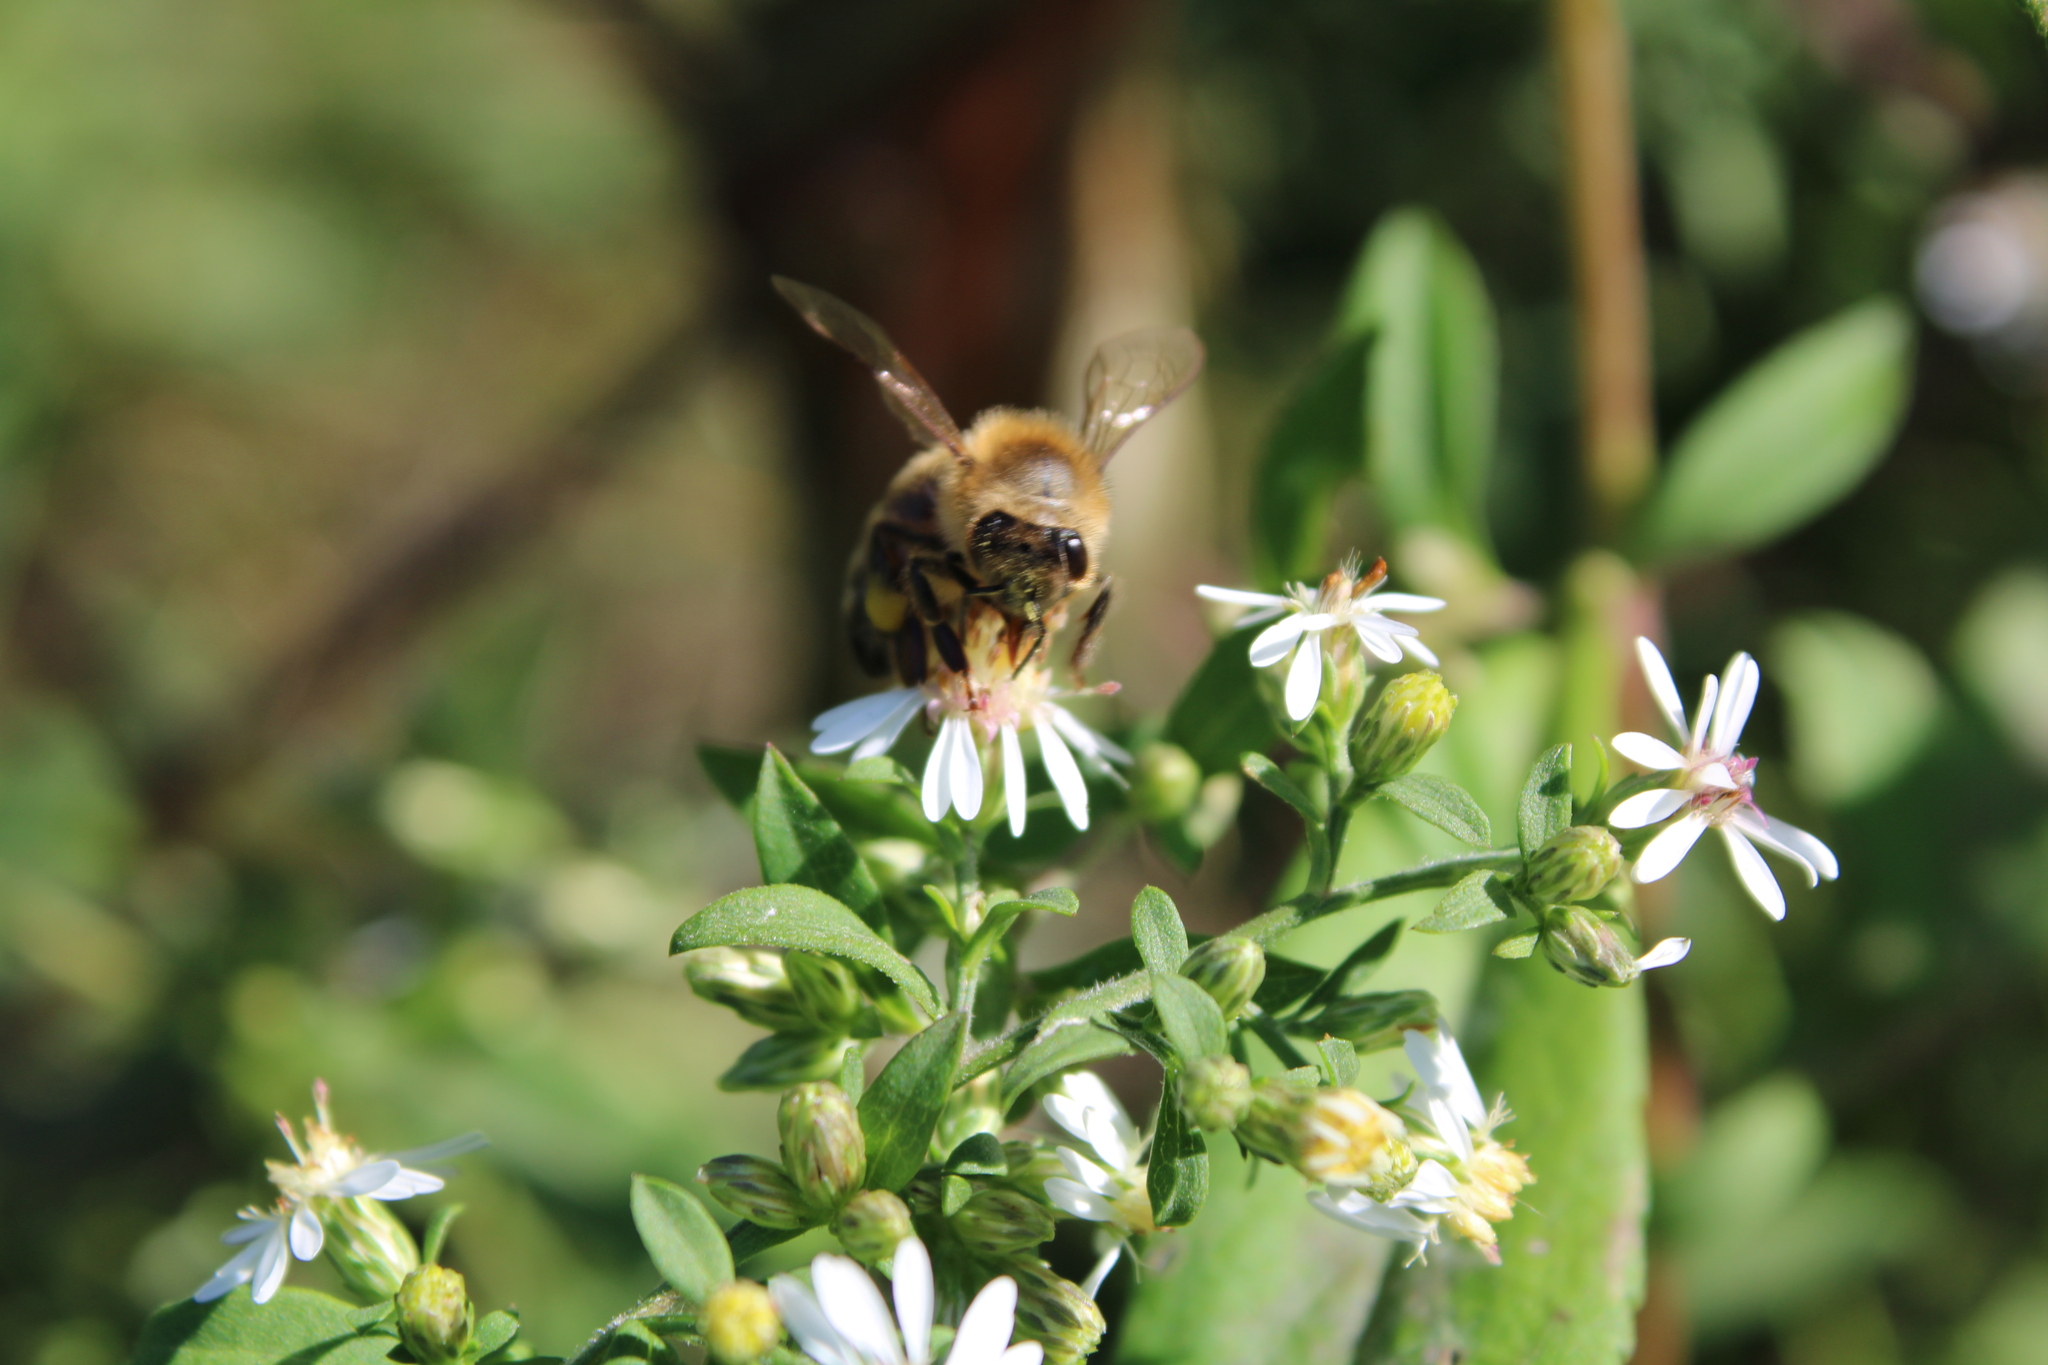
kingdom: Animalia
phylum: Arthropoda
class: Insecta
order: Hymenoptera
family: Apidae
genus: Apis
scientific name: Apis mellifera
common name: Honey bee
